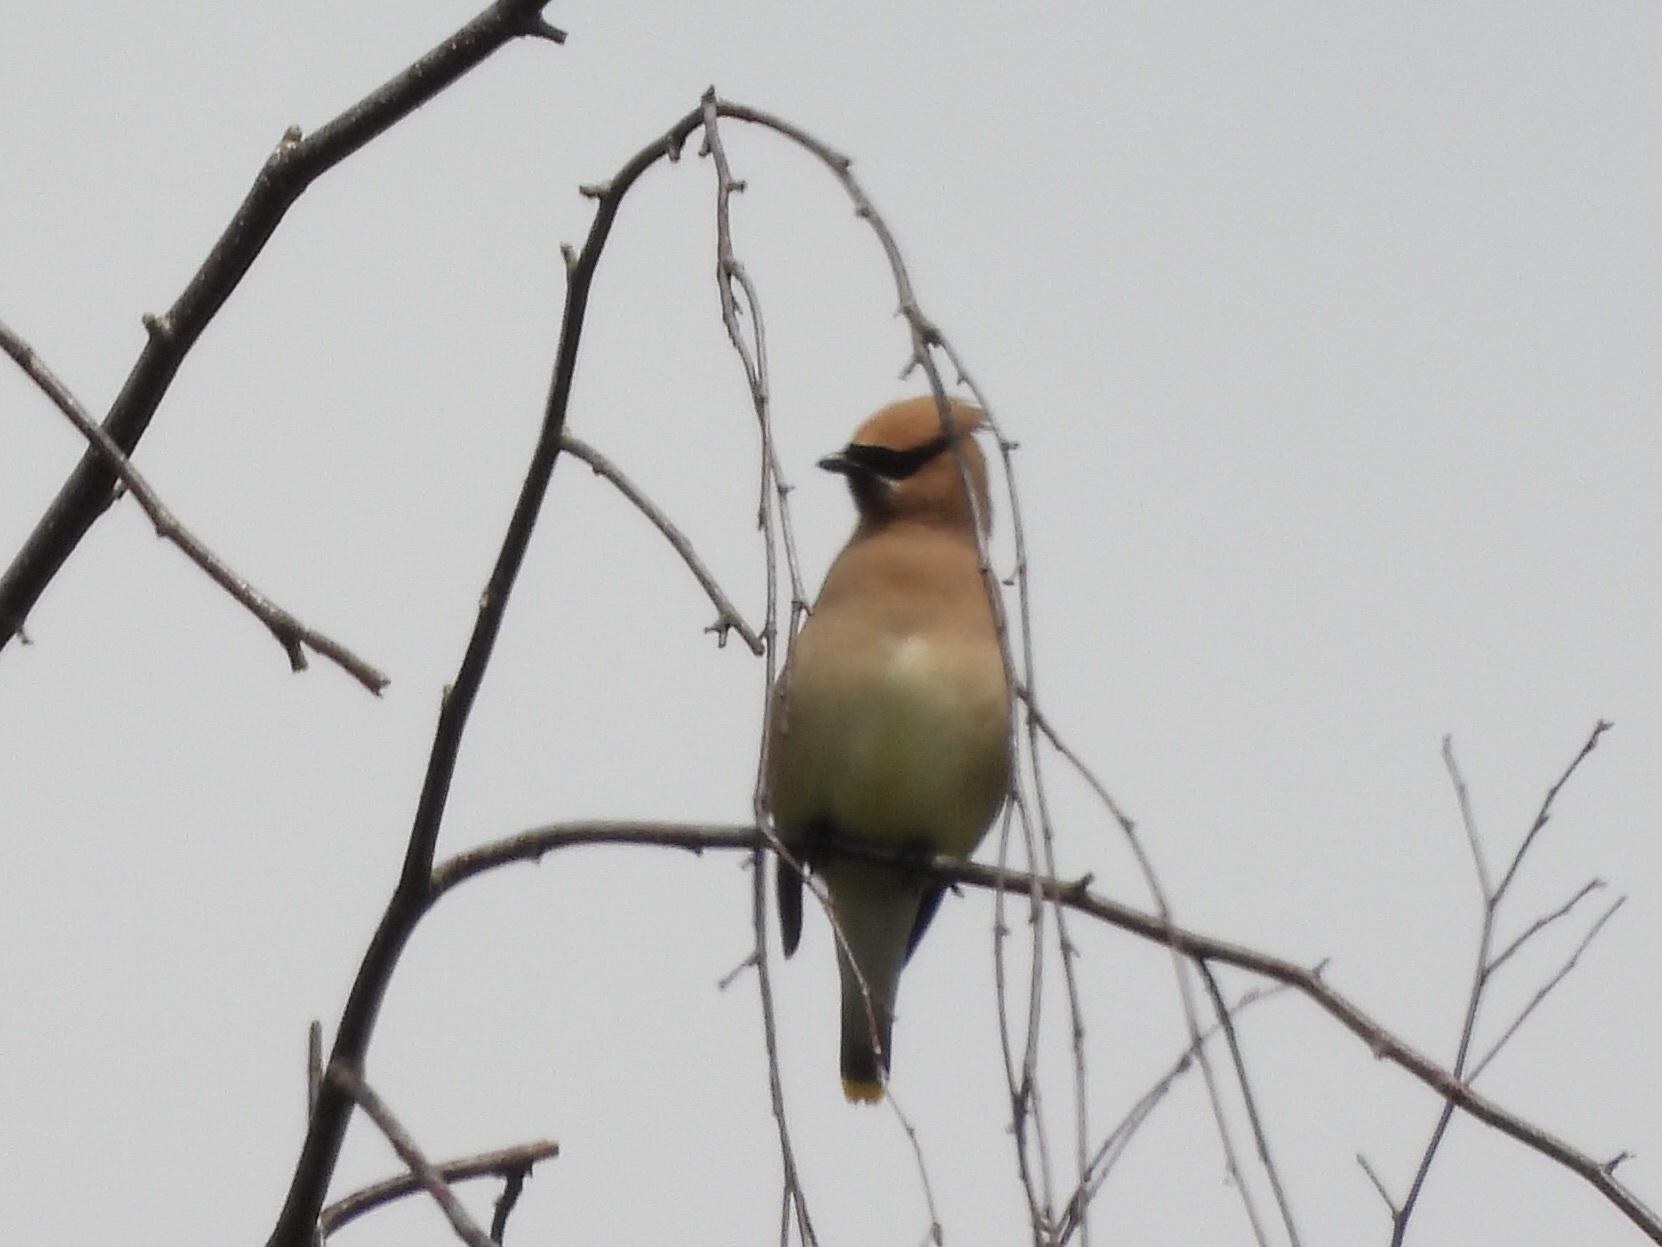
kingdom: Animalia
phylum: Chordata
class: Aves
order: Passeriformes
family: Bombycillidae
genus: Bombycilla
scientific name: Bombycilla cedrorum
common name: Cedar waxwing
